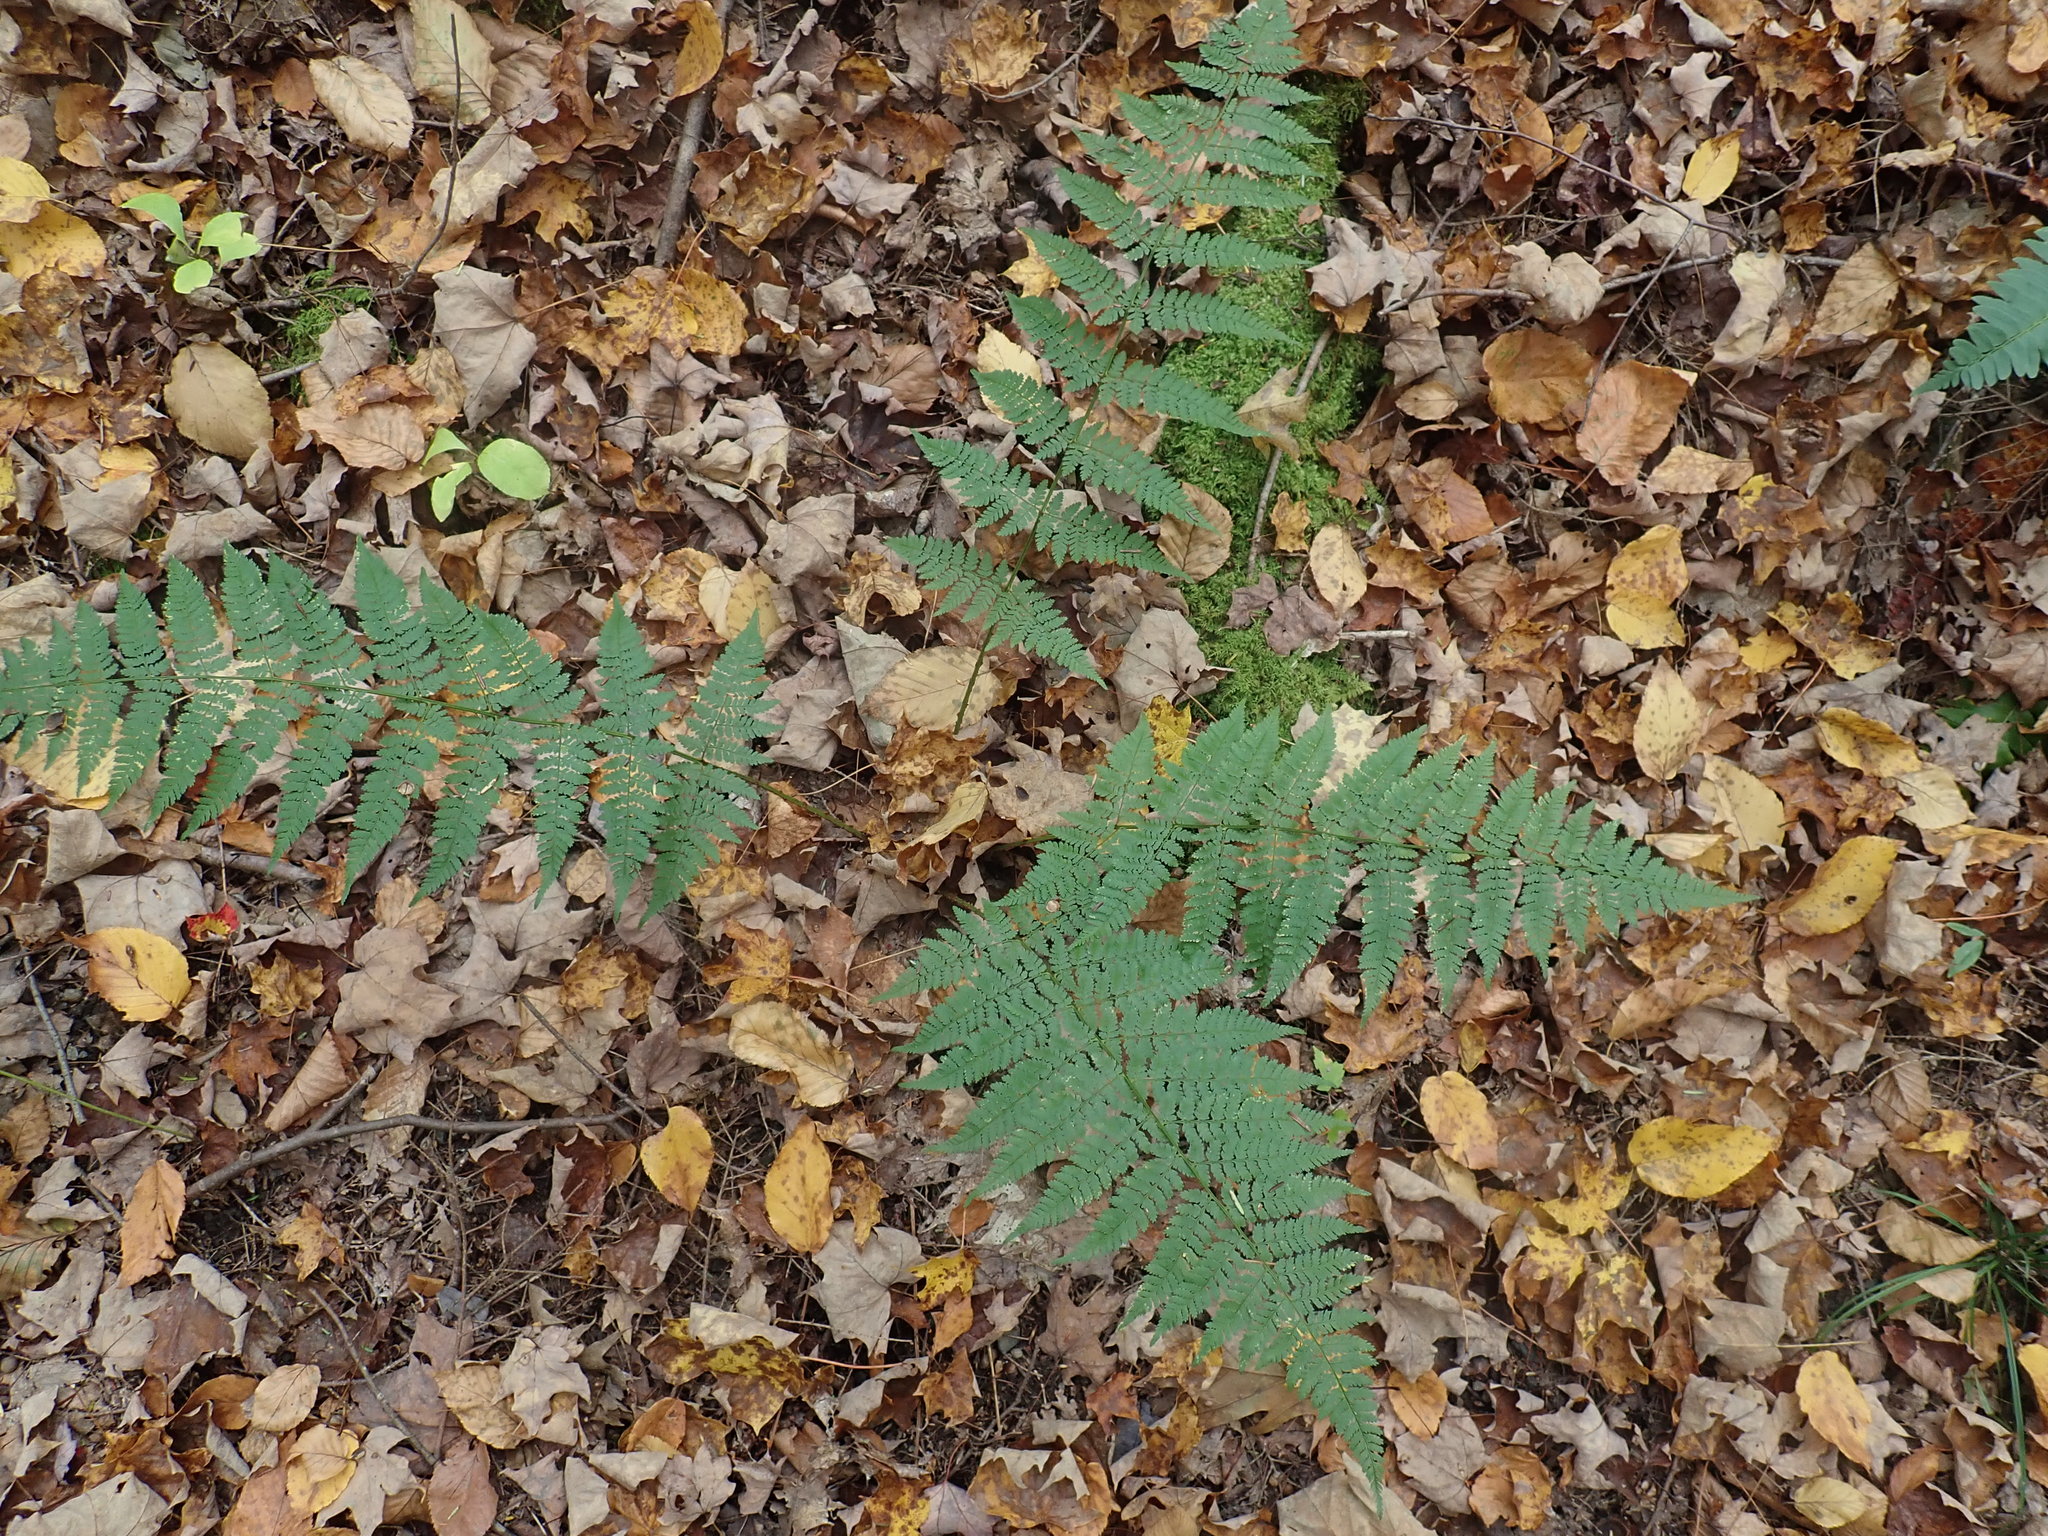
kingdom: Plantae
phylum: Tracheophyta
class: Polypodiopsida
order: Polypodiales
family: Dryopteridaceae
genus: Dryopteris
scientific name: Dryopteris intermedia
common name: Evergreen wood fern
